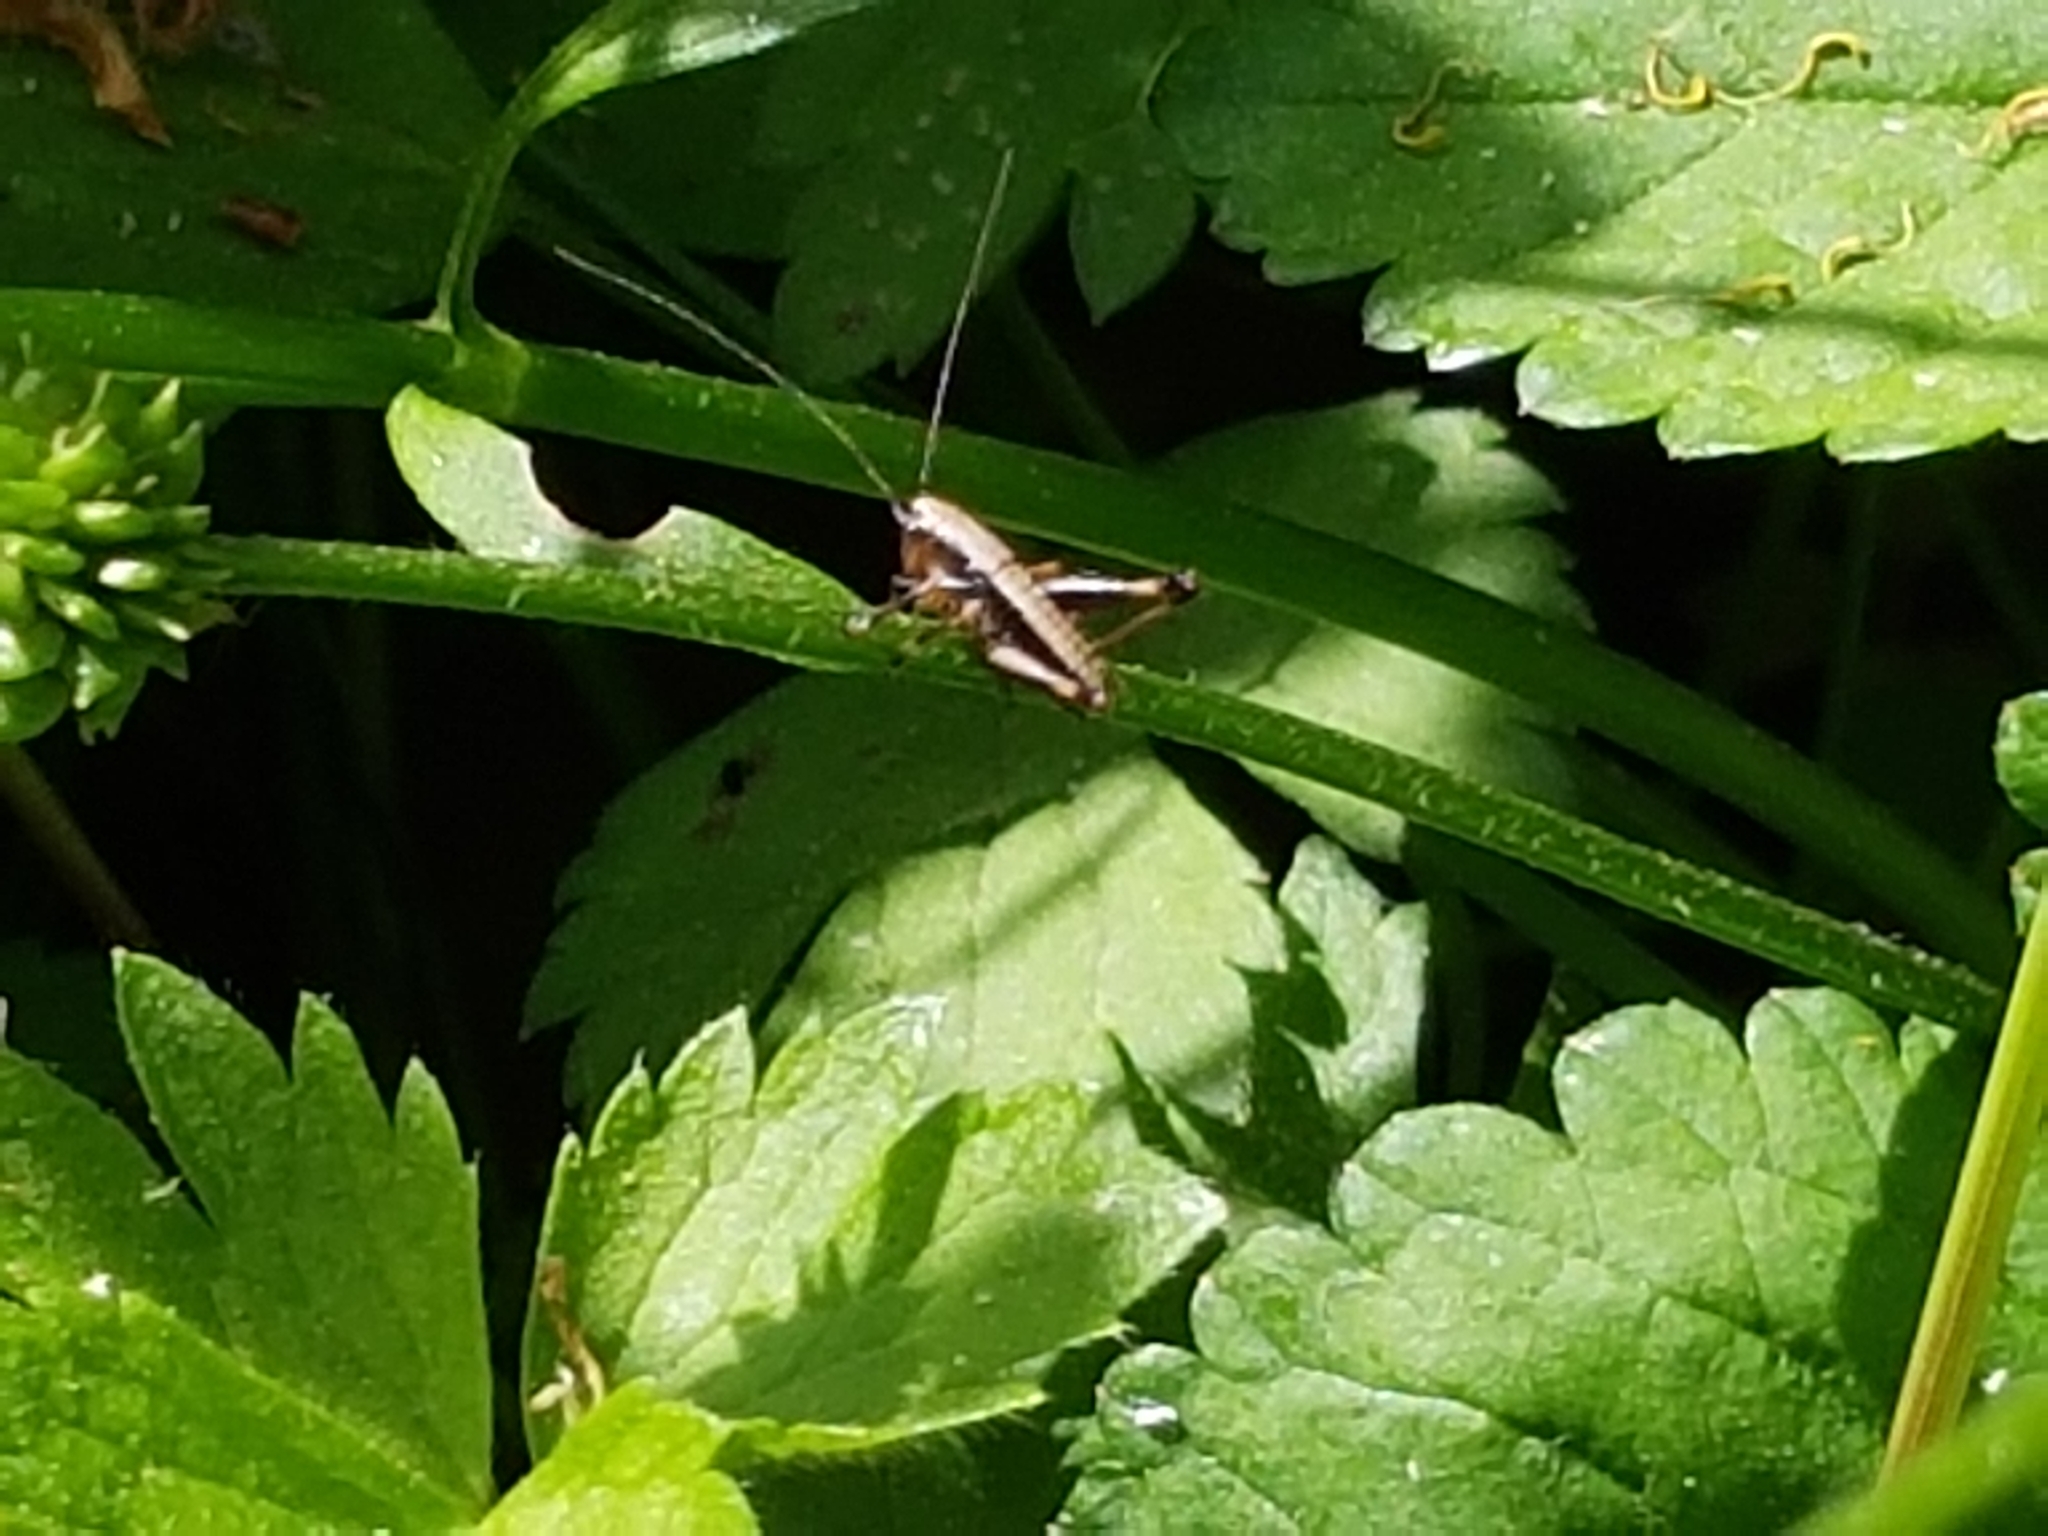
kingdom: Animalia
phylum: Arthropoda
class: Insecta
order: Orthoptera
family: Tettigoniidae
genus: Pholidoptera
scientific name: Pholidoptera griseoaptera
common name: Dark bush-cricket
